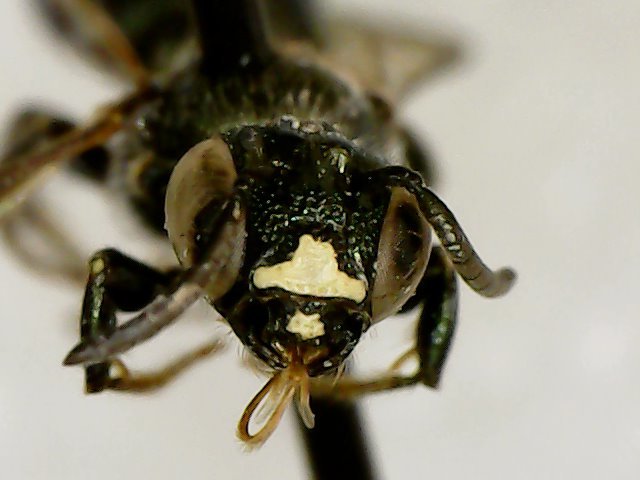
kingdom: Animalia
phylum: Arthropoda
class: Insecta
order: Hymenoptera
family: Apidae
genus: Ceratina
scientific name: Ceratina calcarata
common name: Spurred carpenter bee
